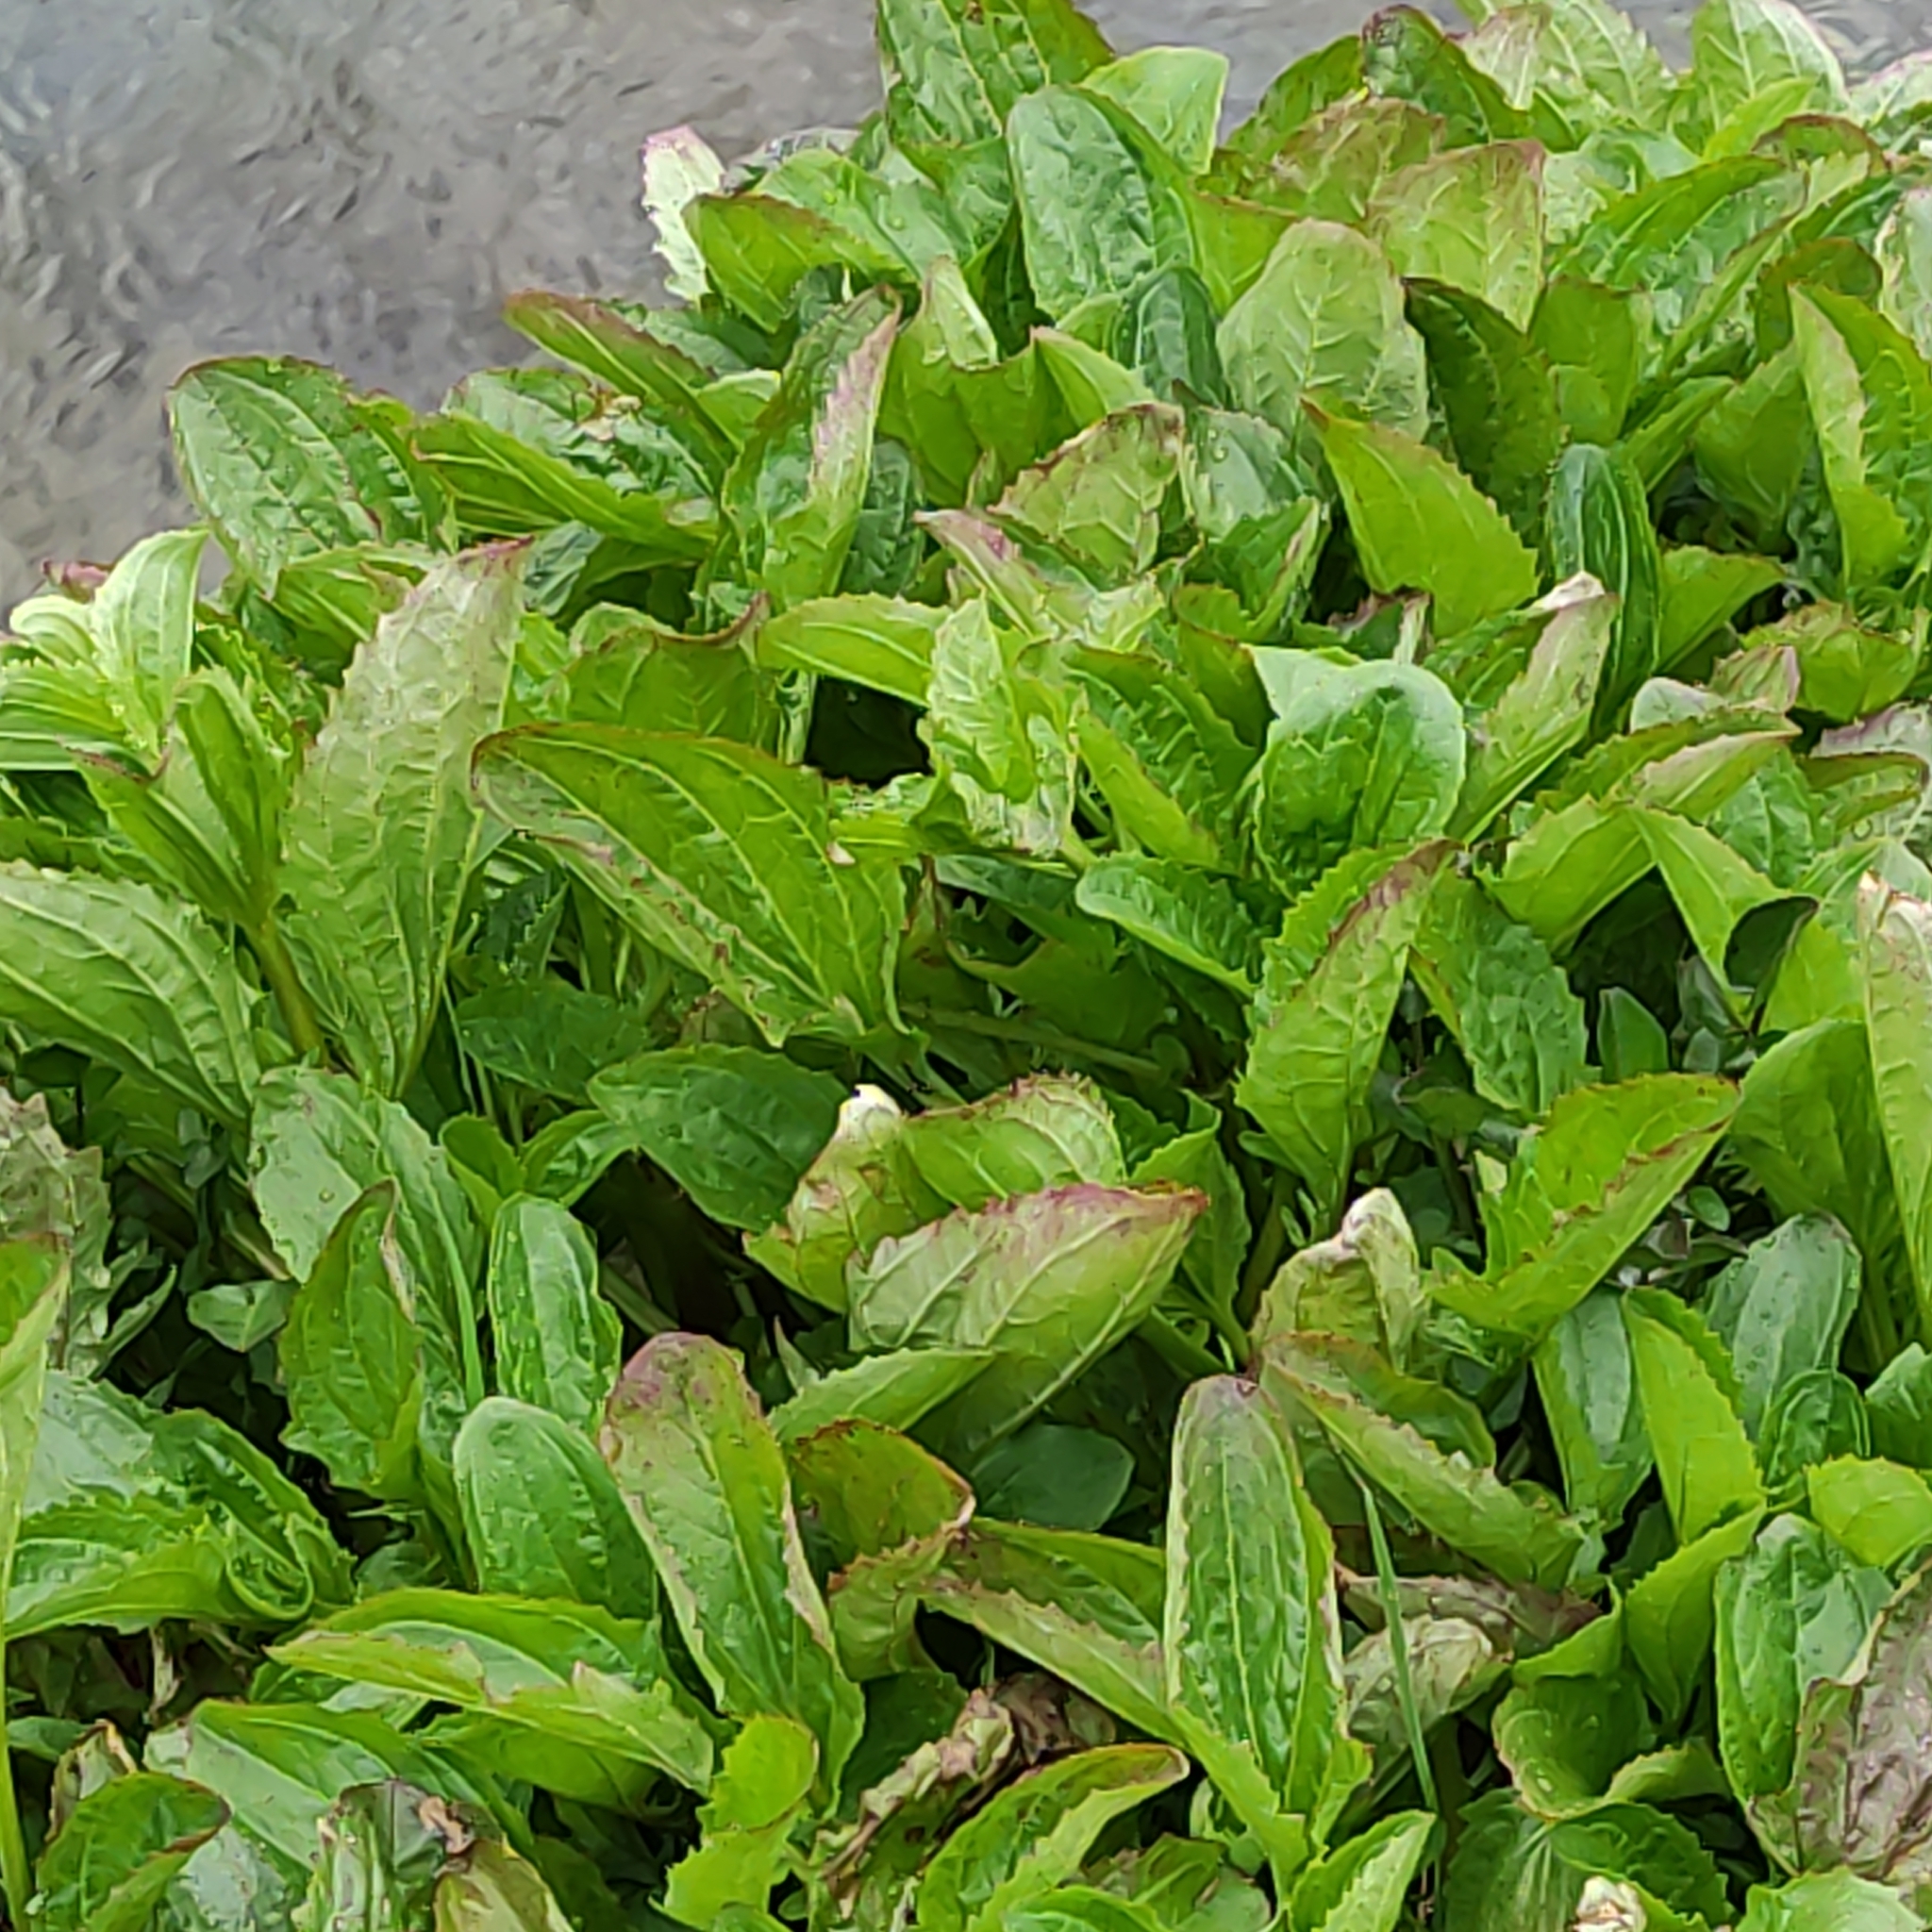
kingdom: Plantae
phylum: Tracheophyta
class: Magnoliopsida
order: Lamiales
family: Phrymaceae
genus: Erythranthe
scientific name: Erythranthe guttata
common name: Monkeyflower
